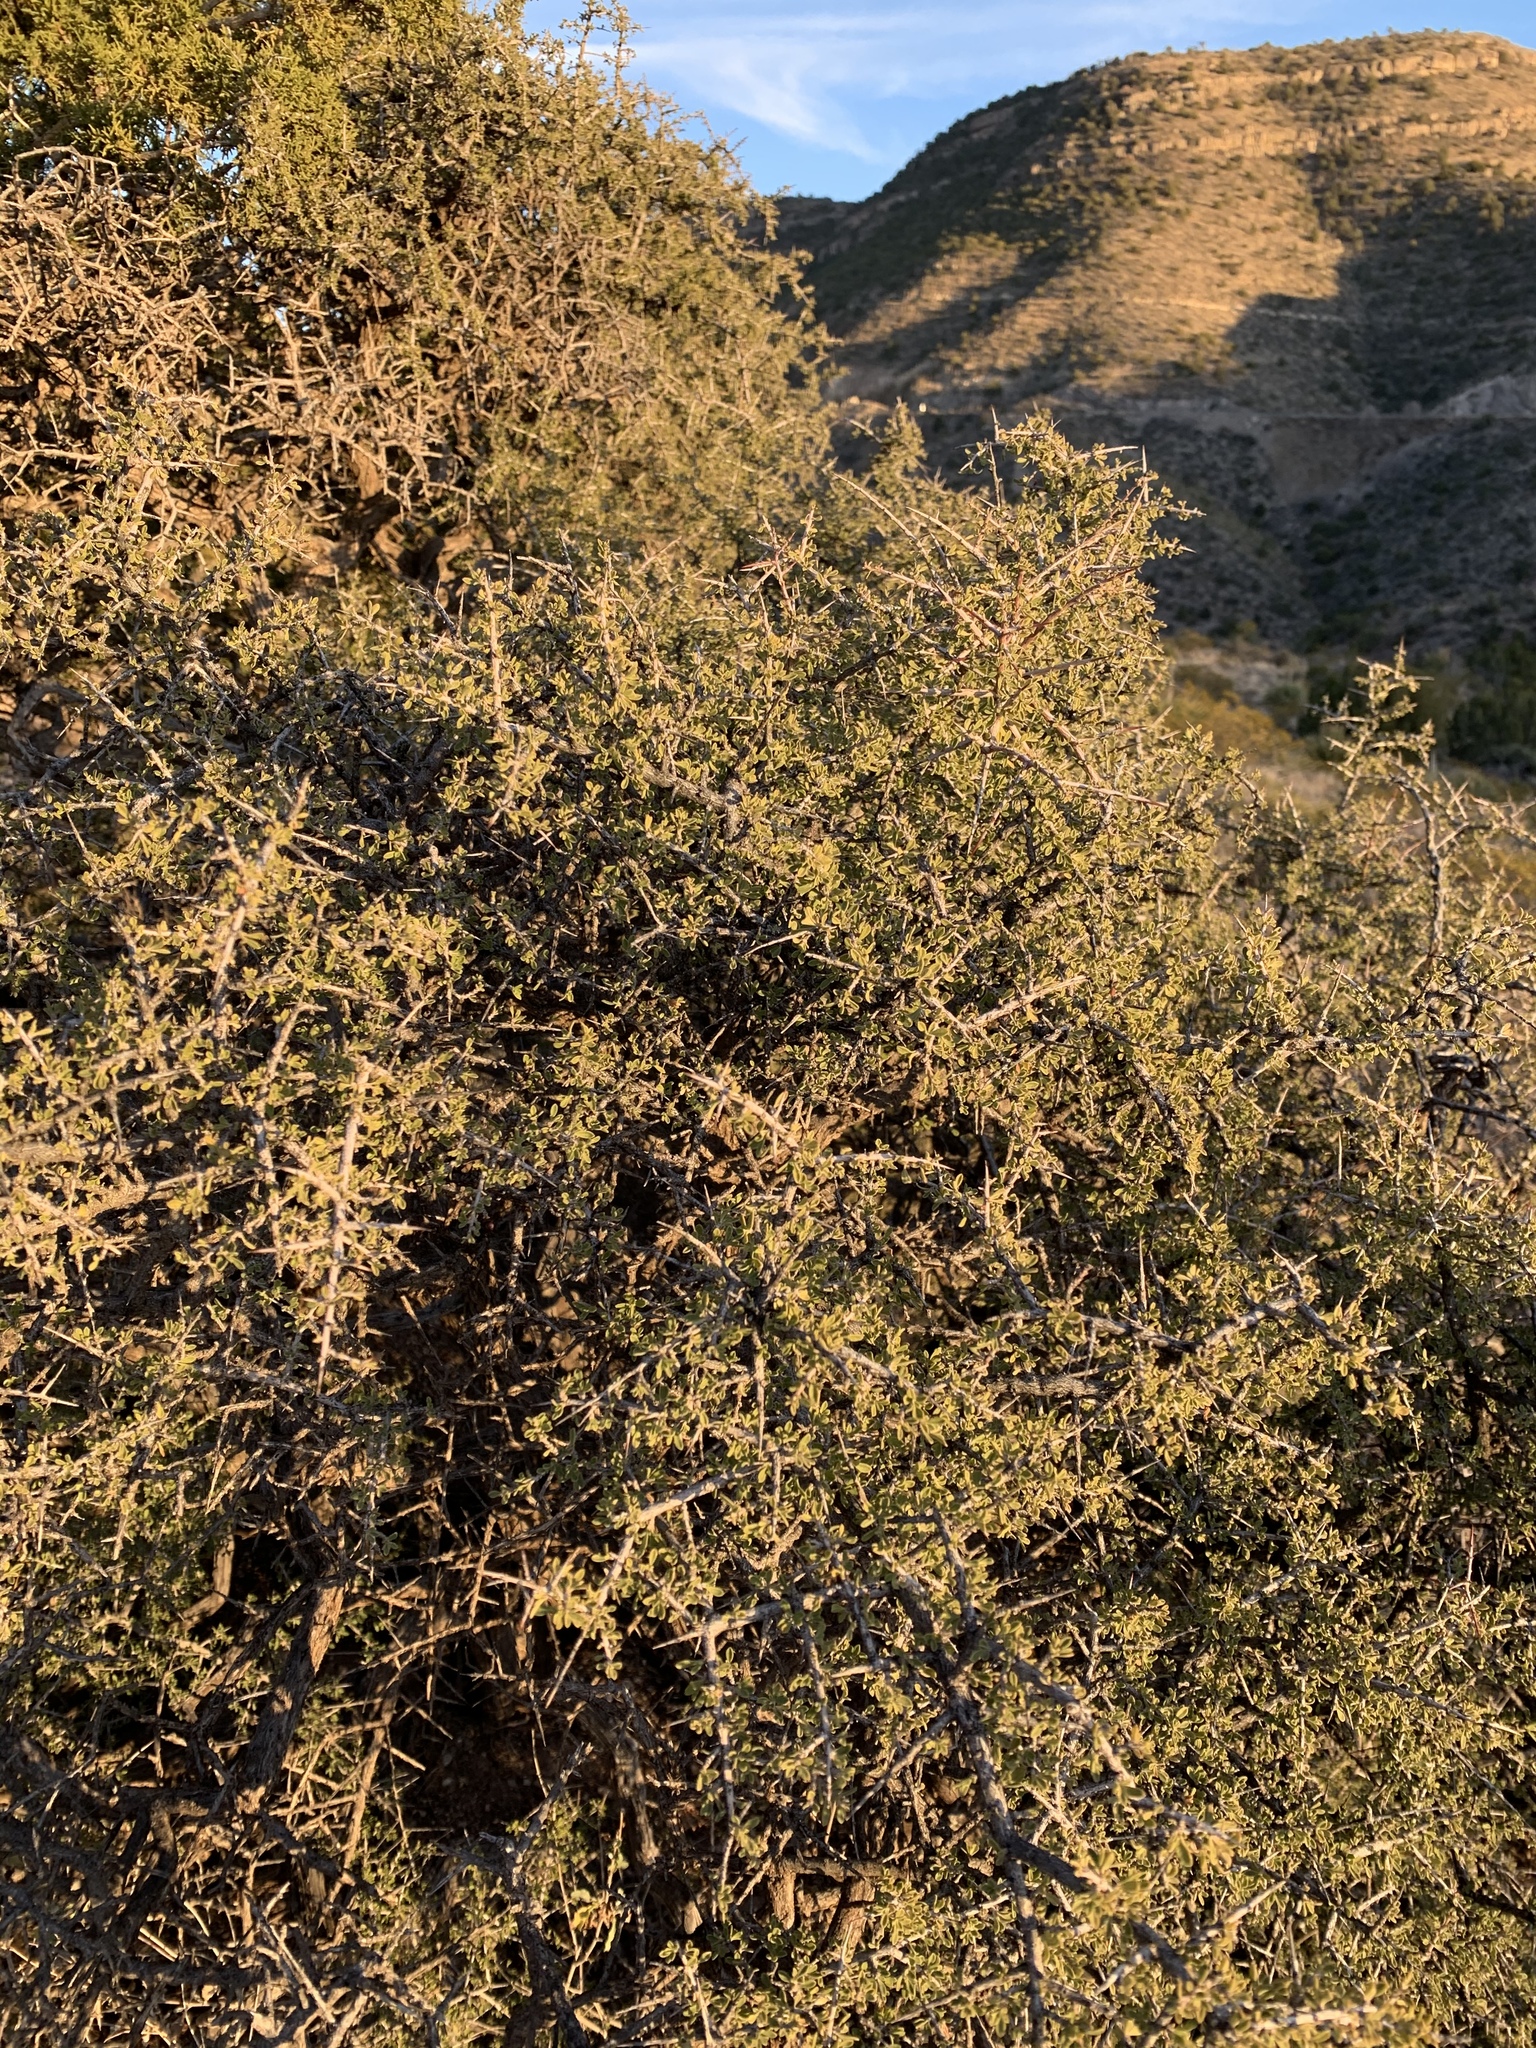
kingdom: Plantae
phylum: Tracheophyta
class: Magnoliopsida
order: Rosales
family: Rhamnaceae
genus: Condalia
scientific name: Condalia warnockii
